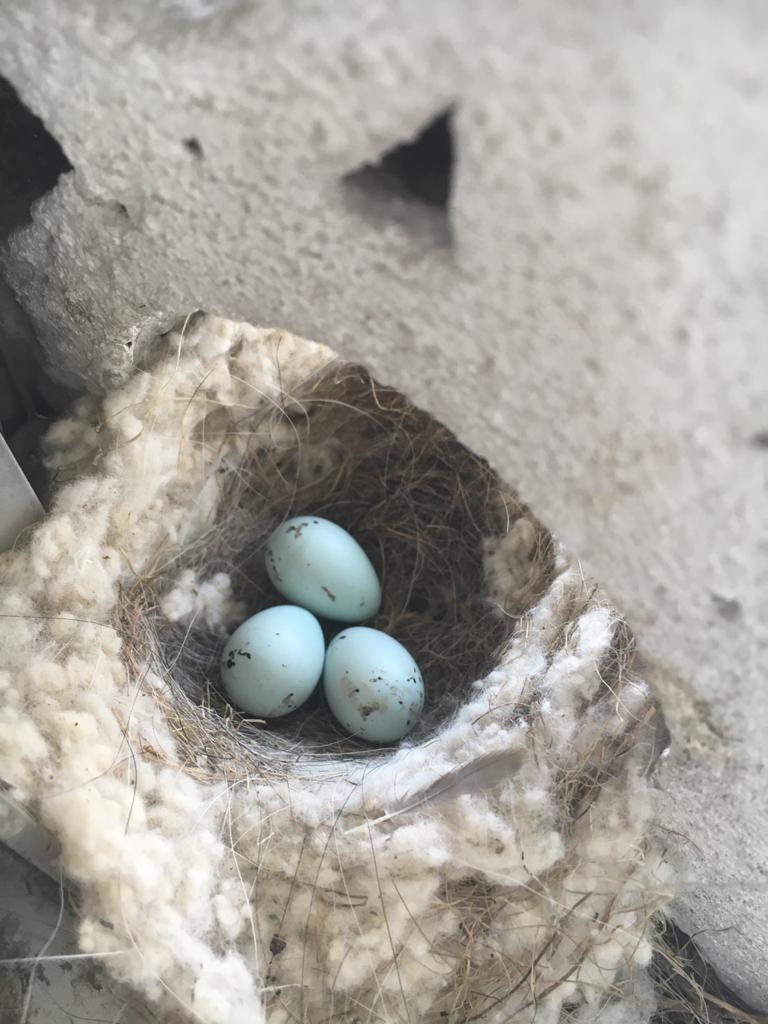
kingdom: Animalia
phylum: Chordata
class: Aves
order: Passeriformes
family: Fringillidae
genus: Haemorhous
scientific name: Haemorhous mexicanus
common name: House finch
